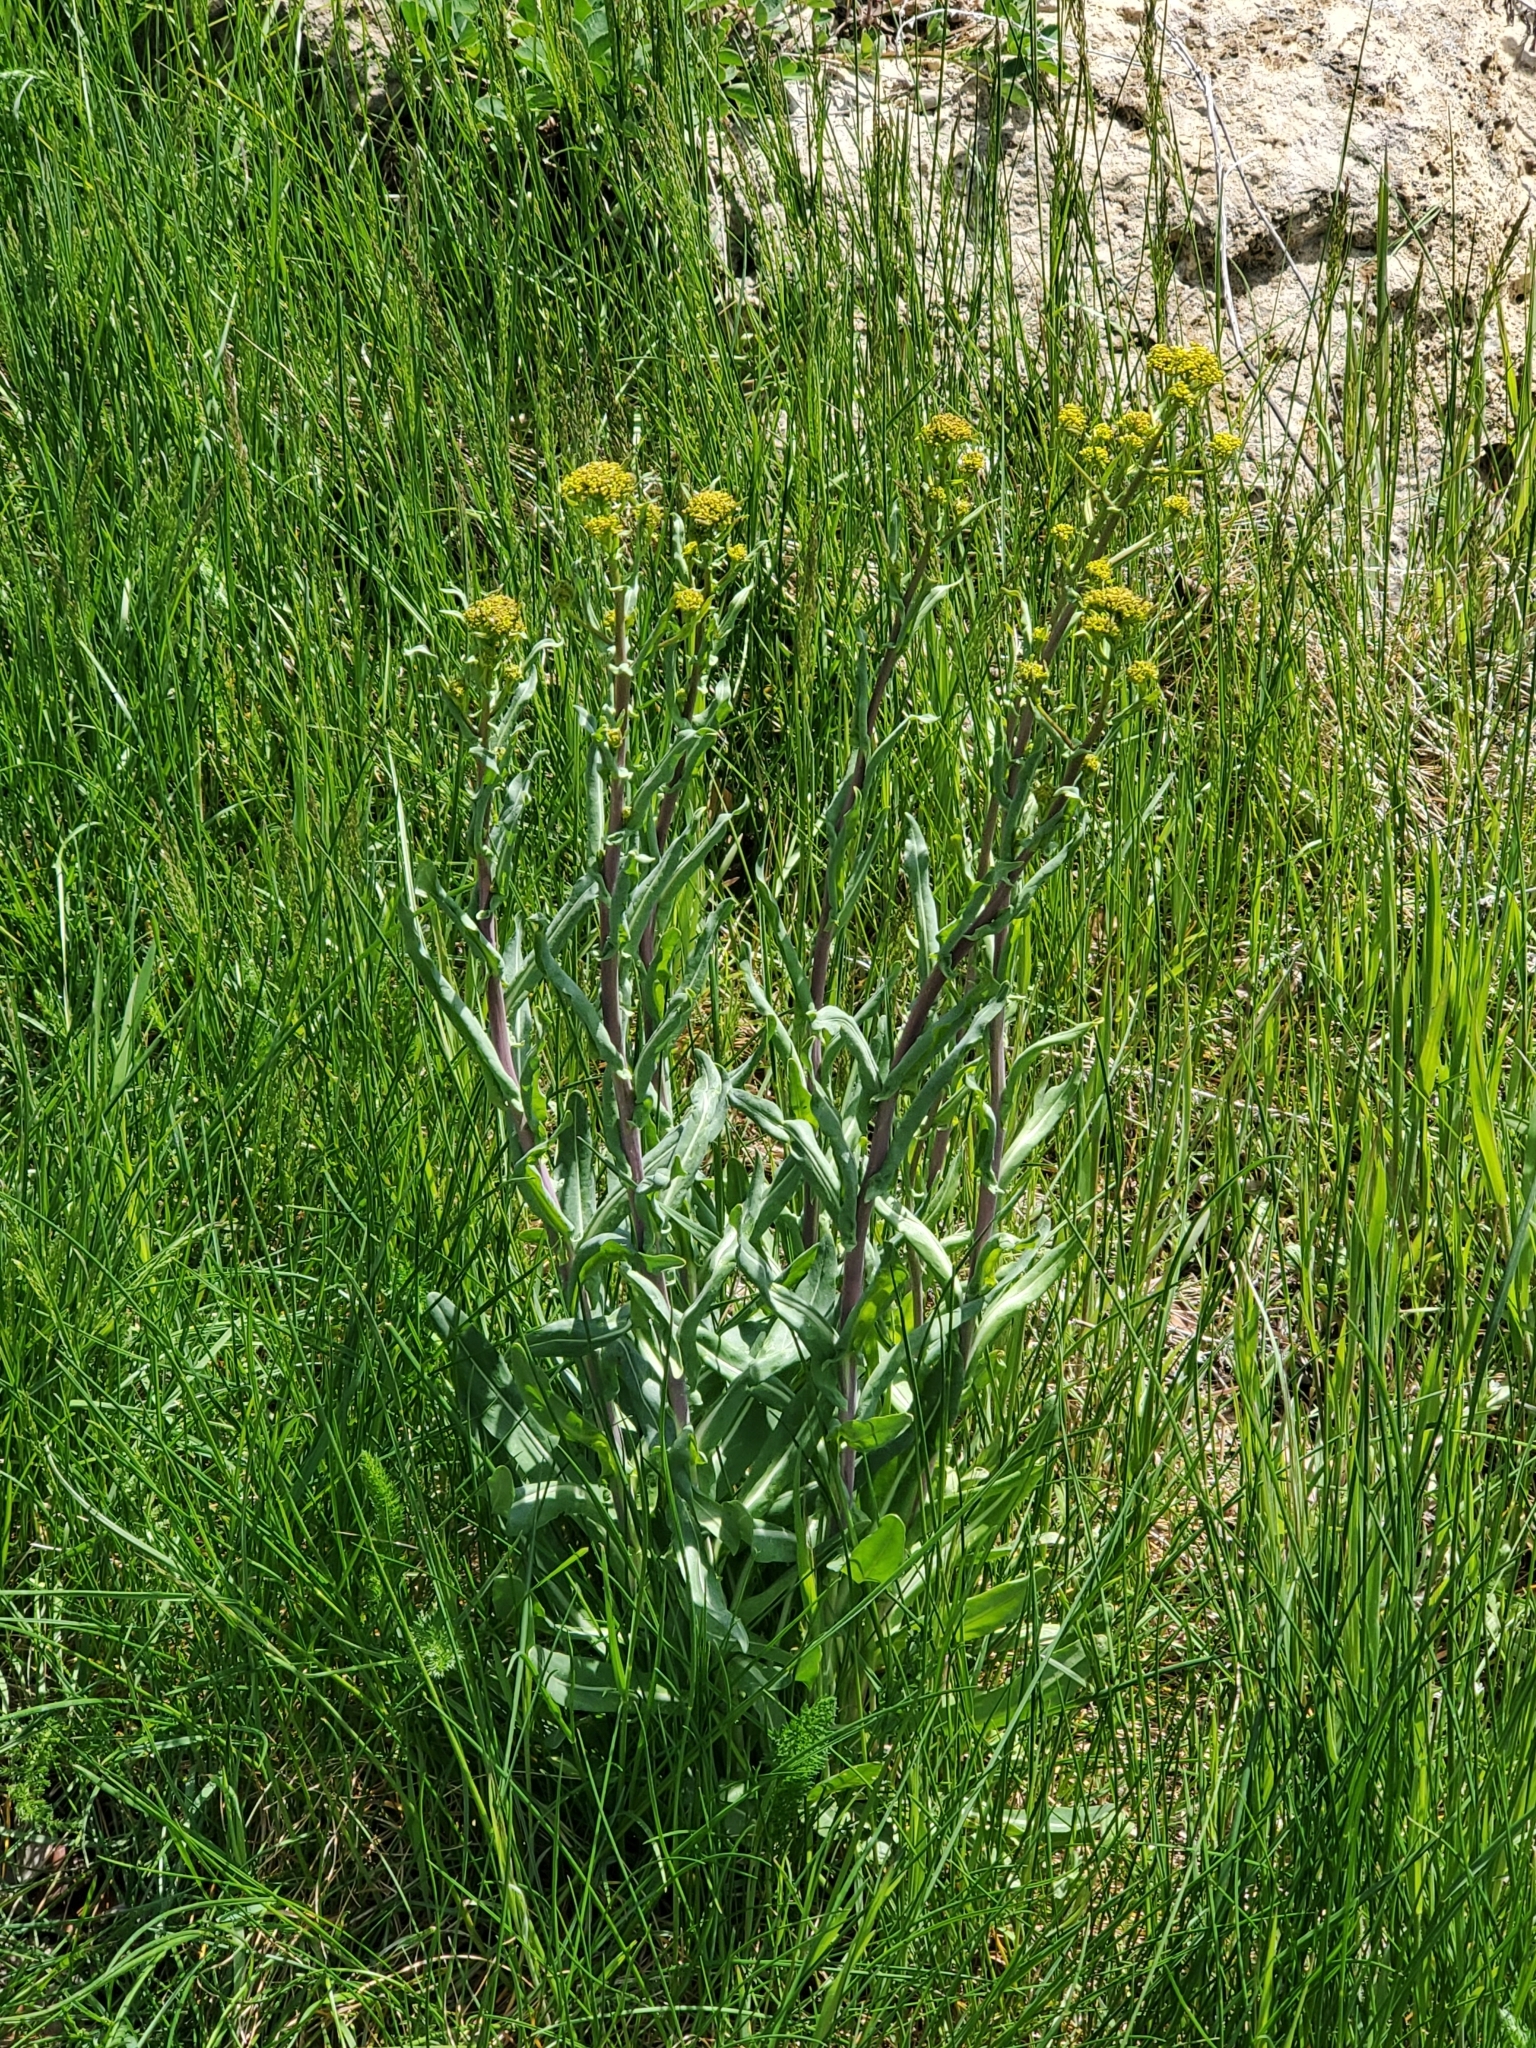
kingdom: Plantae
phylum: Tracheophyta
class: Magnoliopsida
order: Brassicales
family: Brassicaceae
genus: Isatis
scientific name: Isatis tinctoria
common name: Woad
